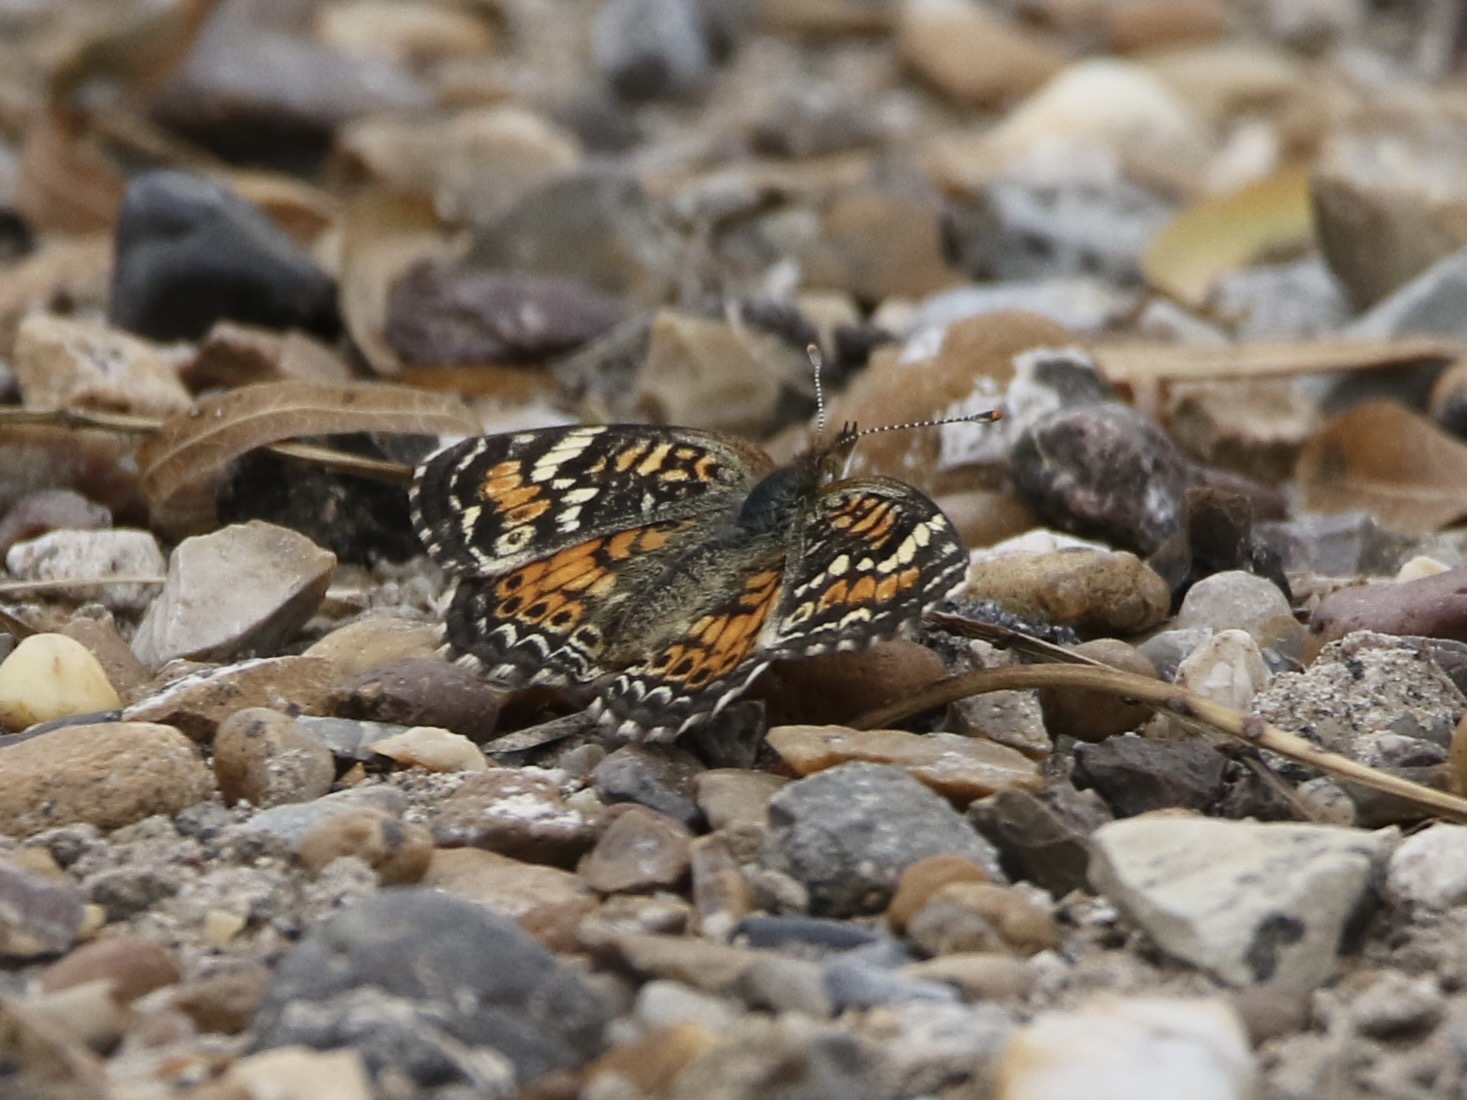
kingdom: Animalia
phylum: Arthropoda
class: Insecta
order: Lepidoptera
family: Nymphalidae
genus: Phyciodes
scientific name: Phyciodes phaon
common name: Phaon crescent
